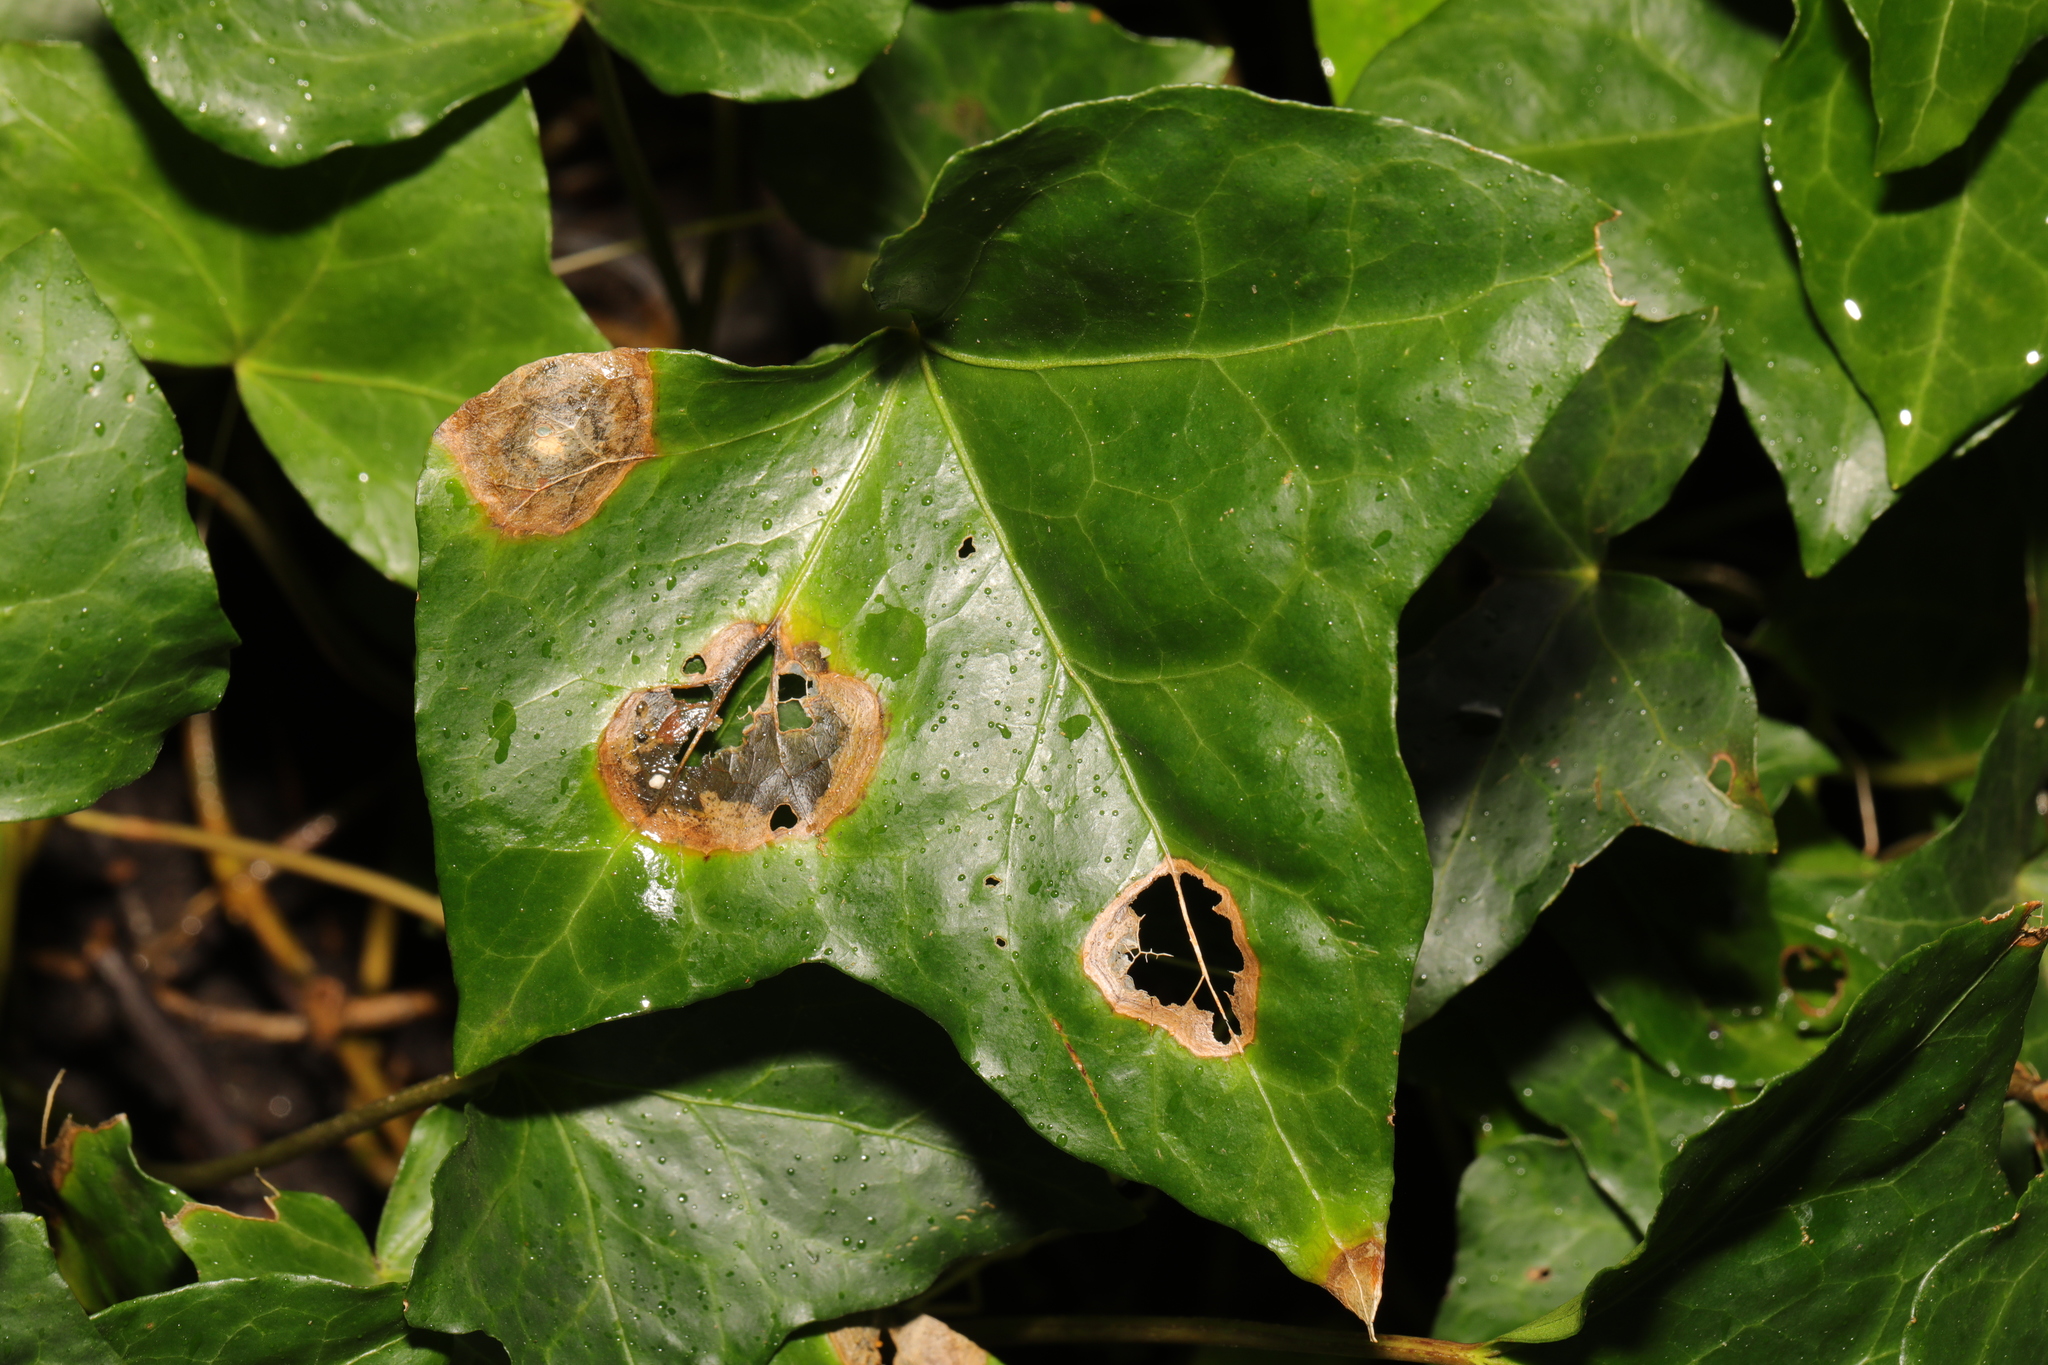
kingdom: Fungi
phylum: Ascomycota
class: Dothideomycetes
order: Pleosporales
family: Didymellaceae
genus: Boeremia
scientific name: Boeremia hedericola
